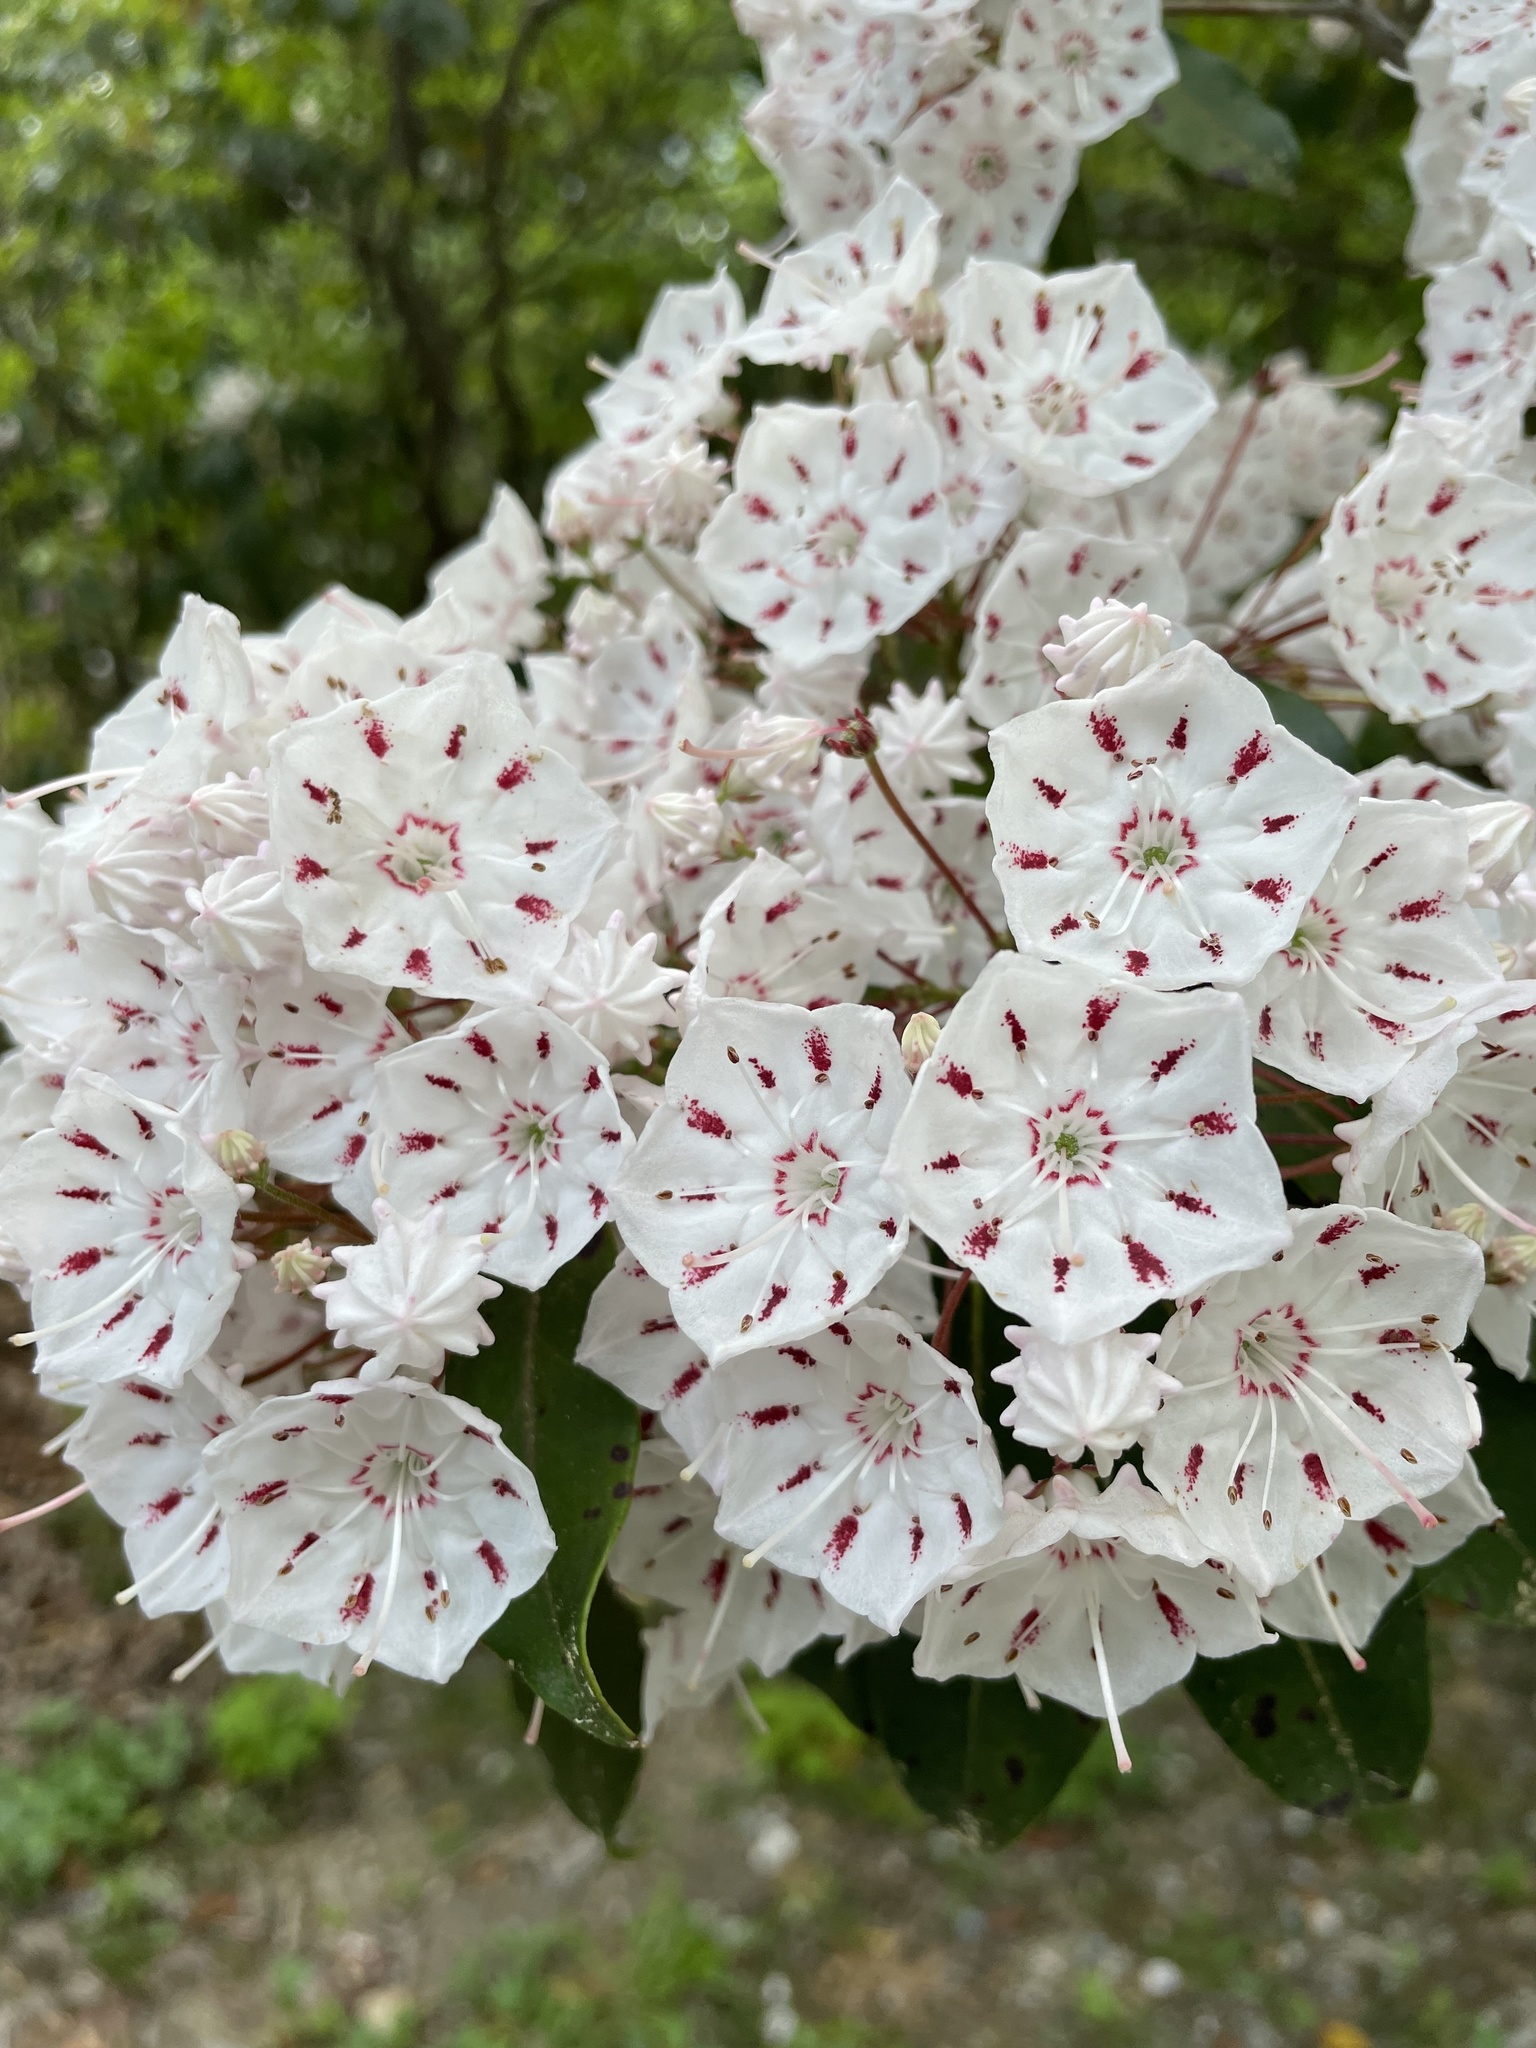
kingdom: Plantae
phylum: Tracheophyta
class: Magnoliopsida
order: Ericales
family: Ericaceae
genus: Kalmia
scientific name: Kalmia latifolia
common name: Mountain-laurel
